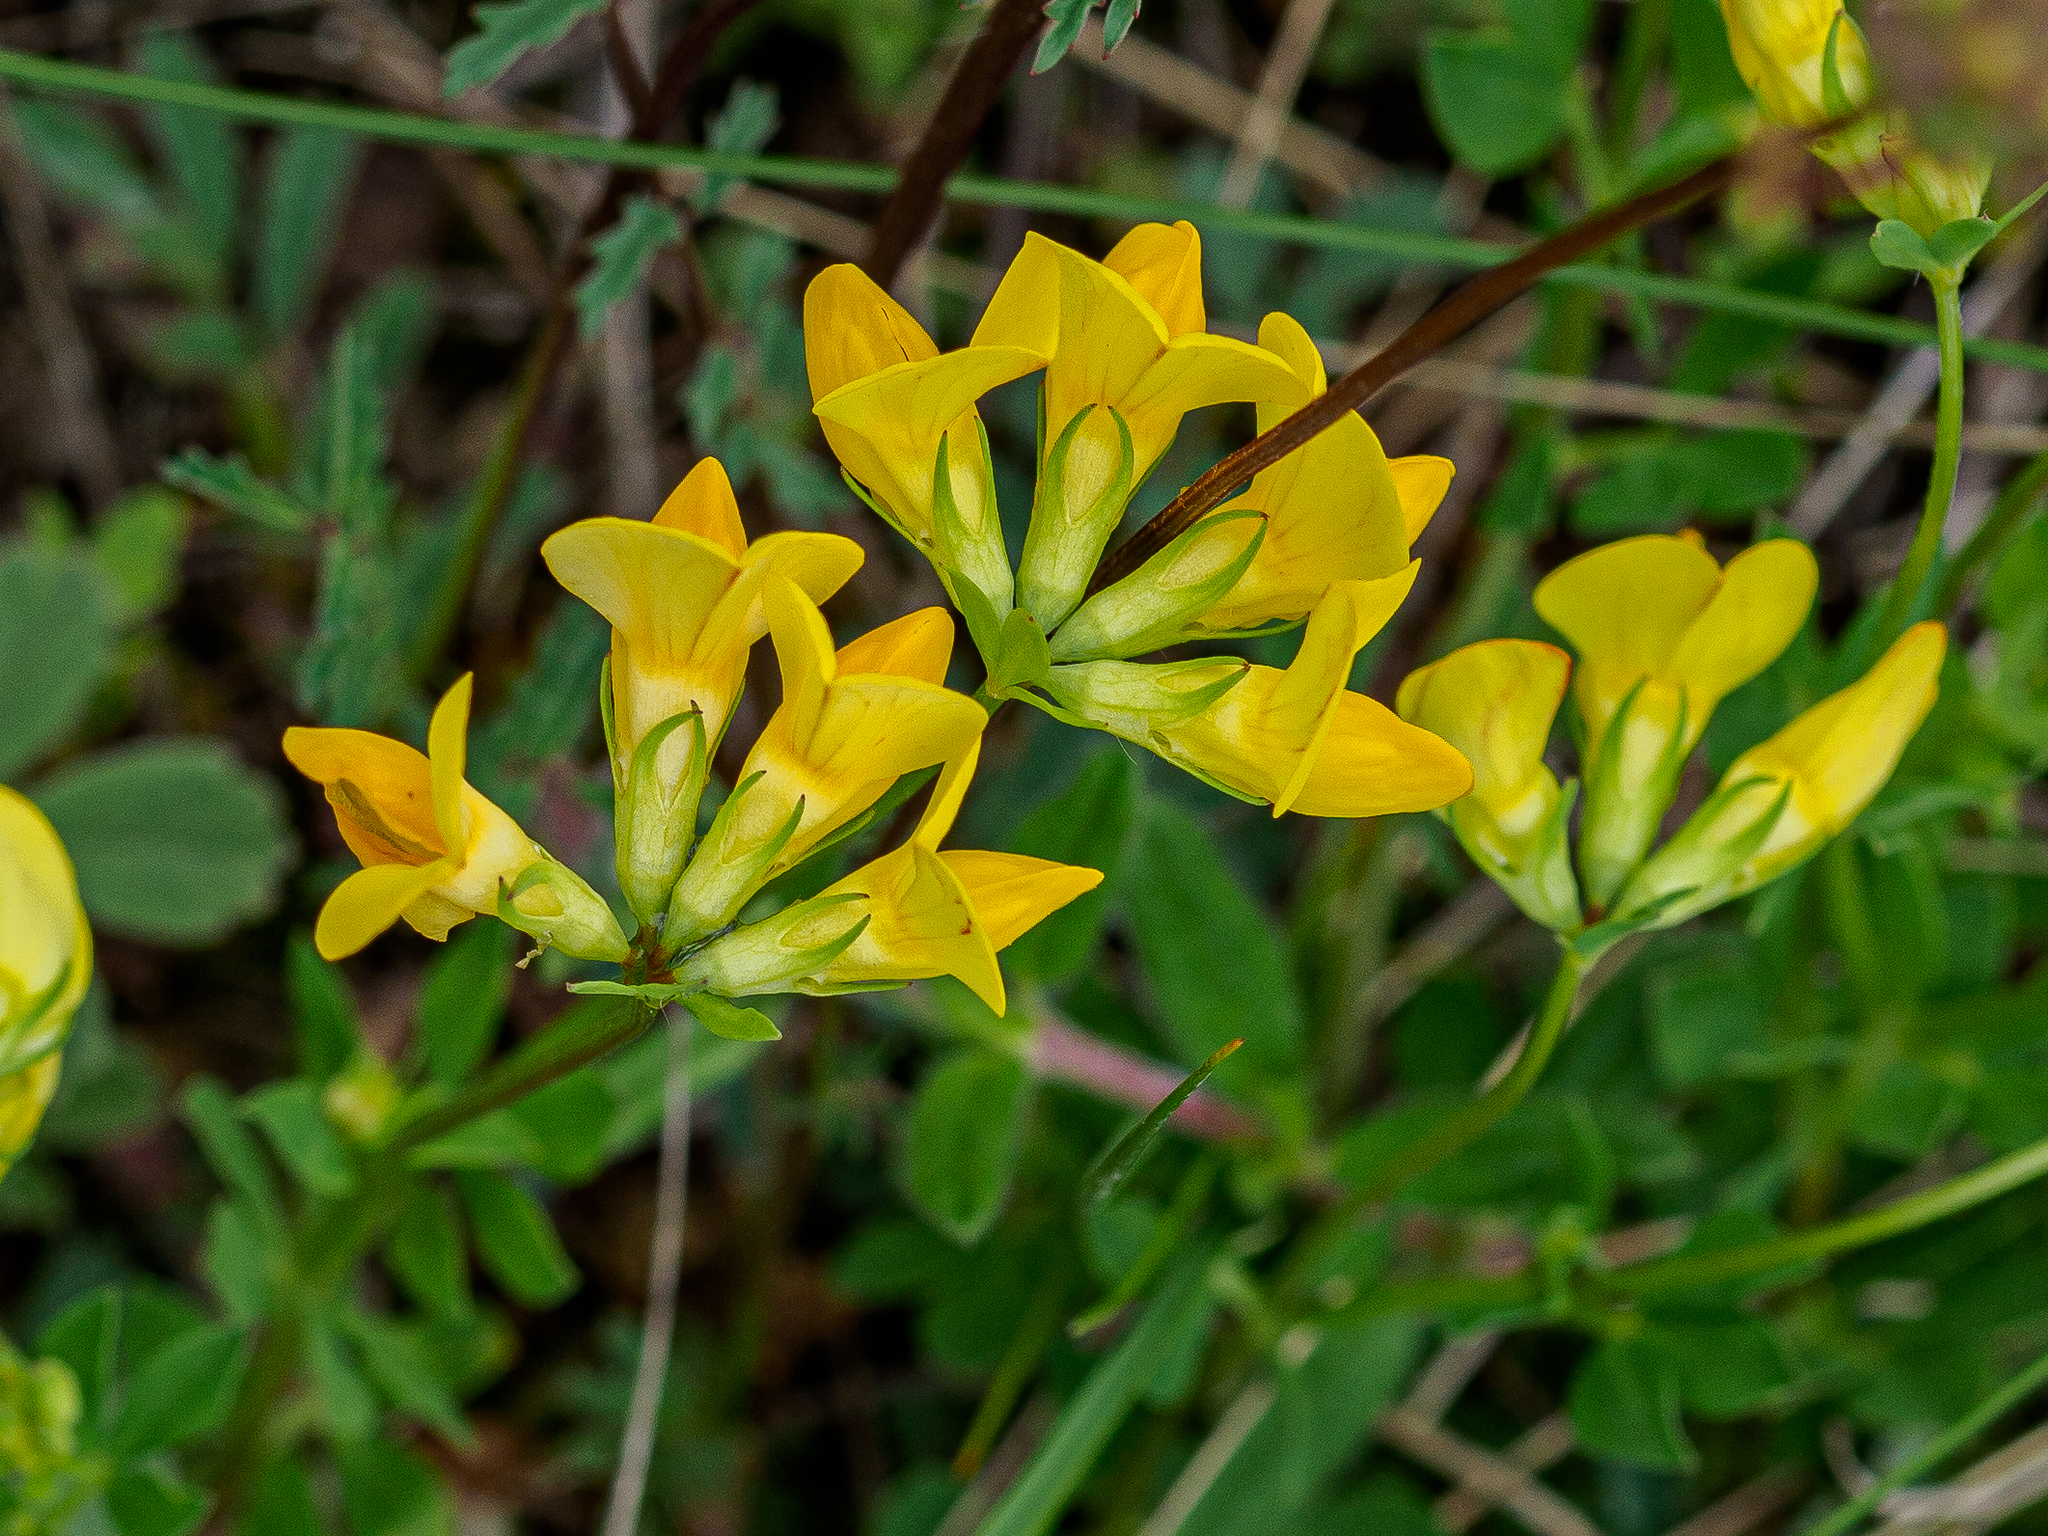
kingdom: Plantae
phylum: Tracheophyta
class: Magnoliopsida
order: Fabales
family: Fabaceae
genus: Lotus
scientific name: Lotus corniculatus
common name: Common bird's-foot-trefoil
